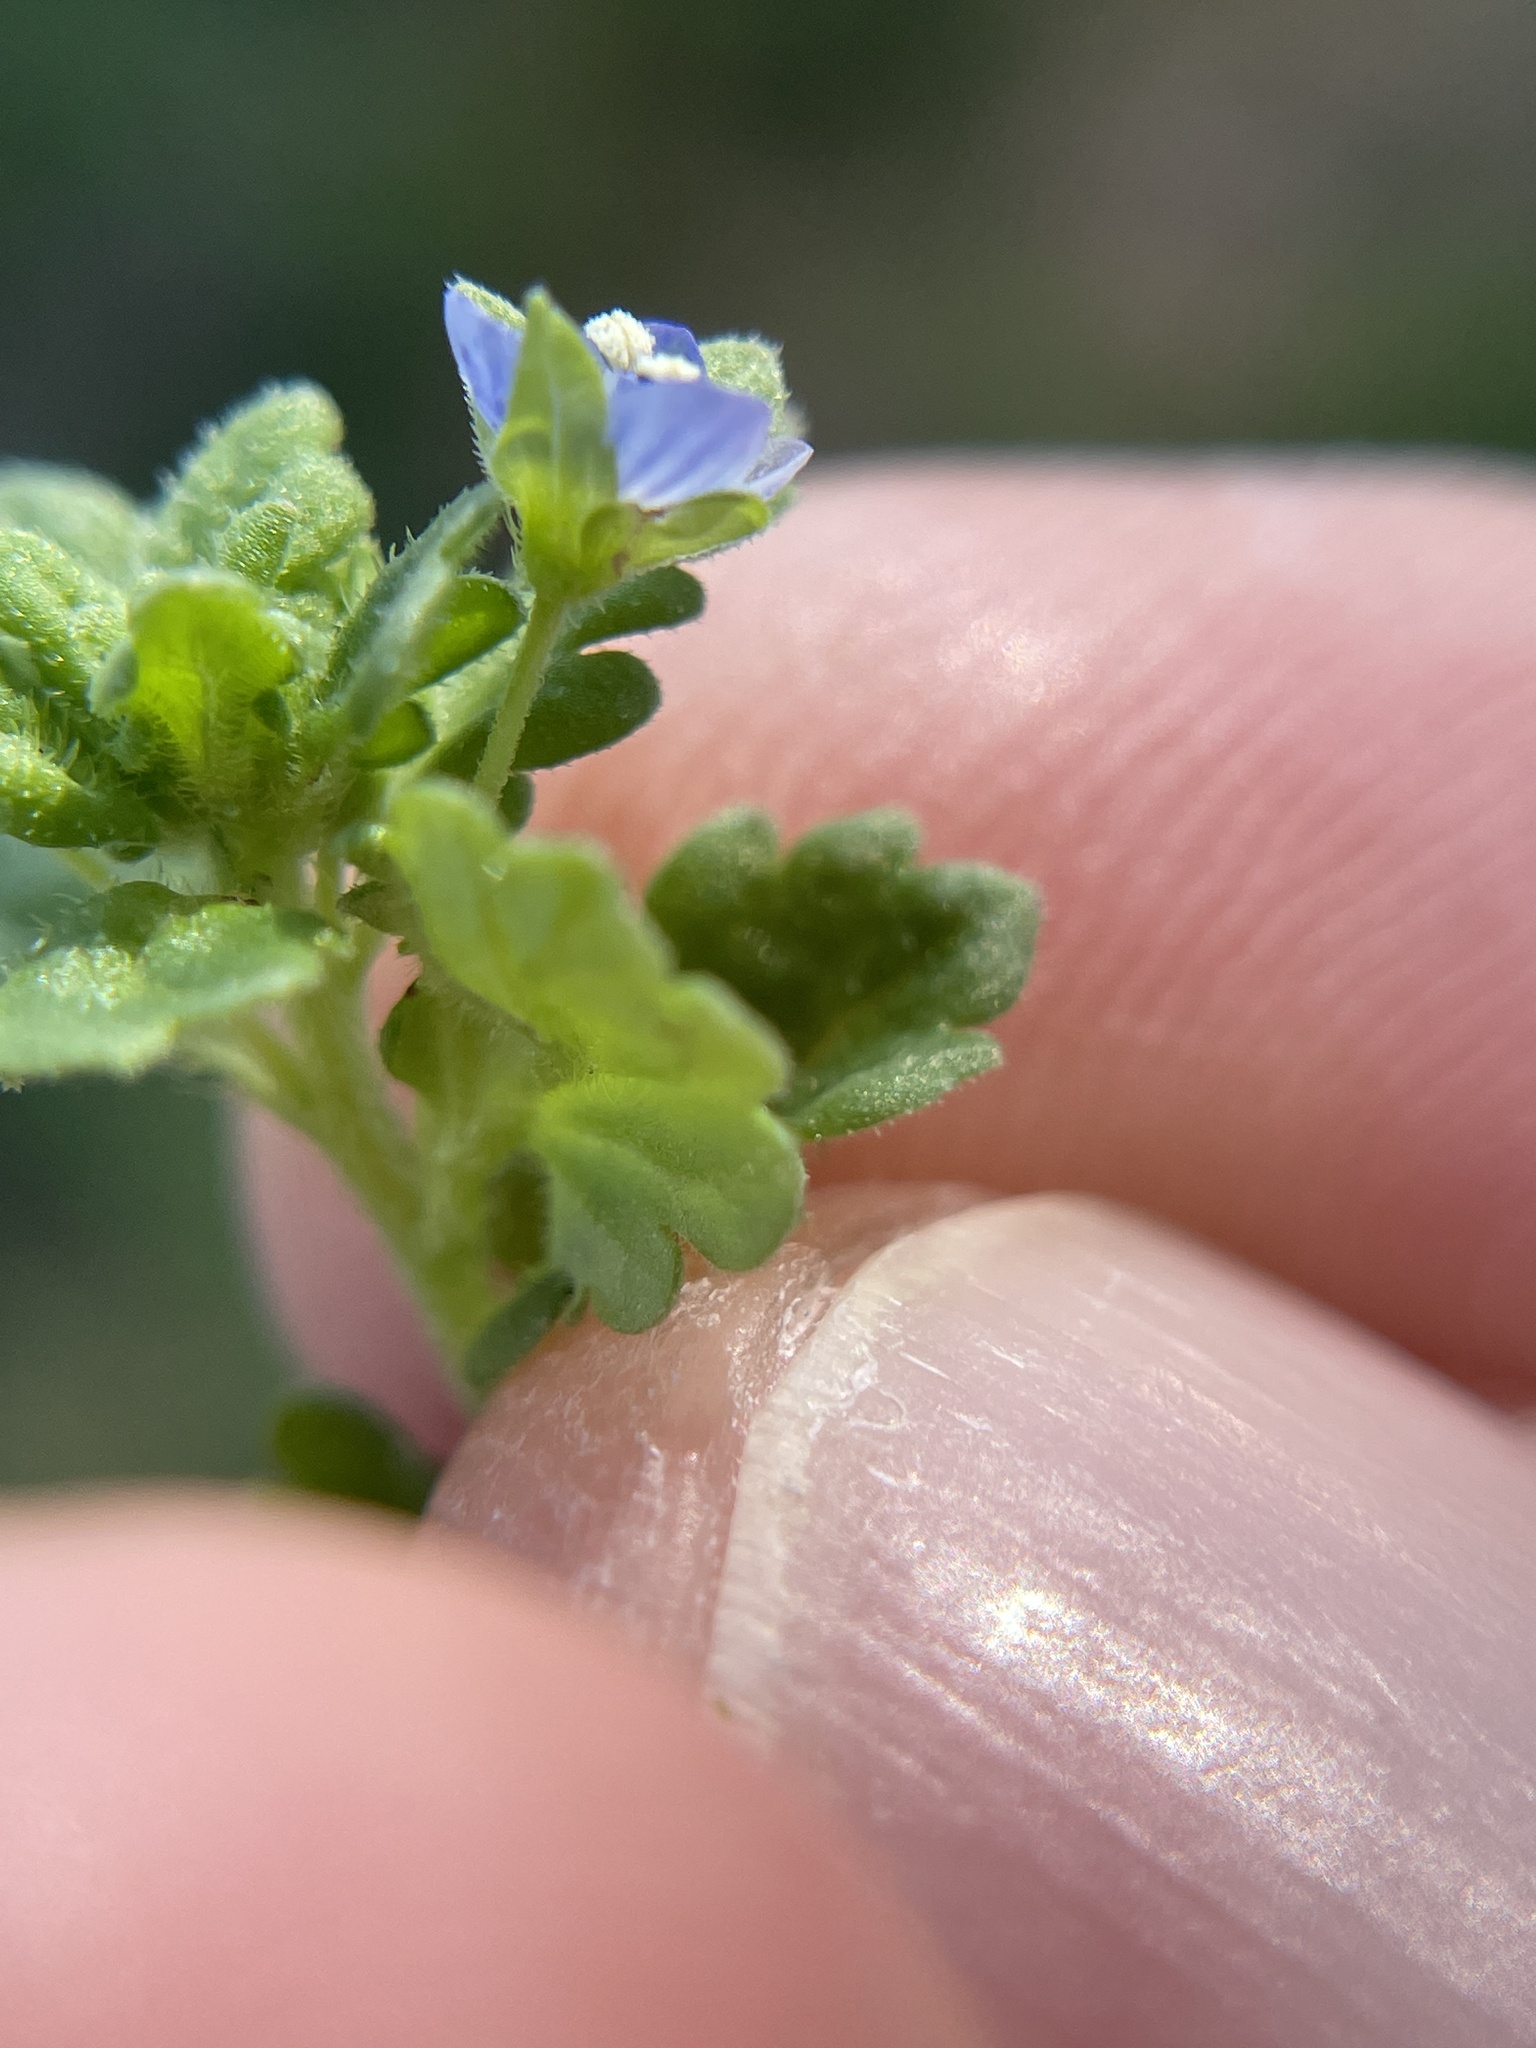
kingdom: Plantae
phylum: Tracheophyta
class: Magnoliopsida
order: Lamiales
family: Plantaginaceae
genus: Veronica
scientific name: Veronica polita
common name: Grey field-speedwell
